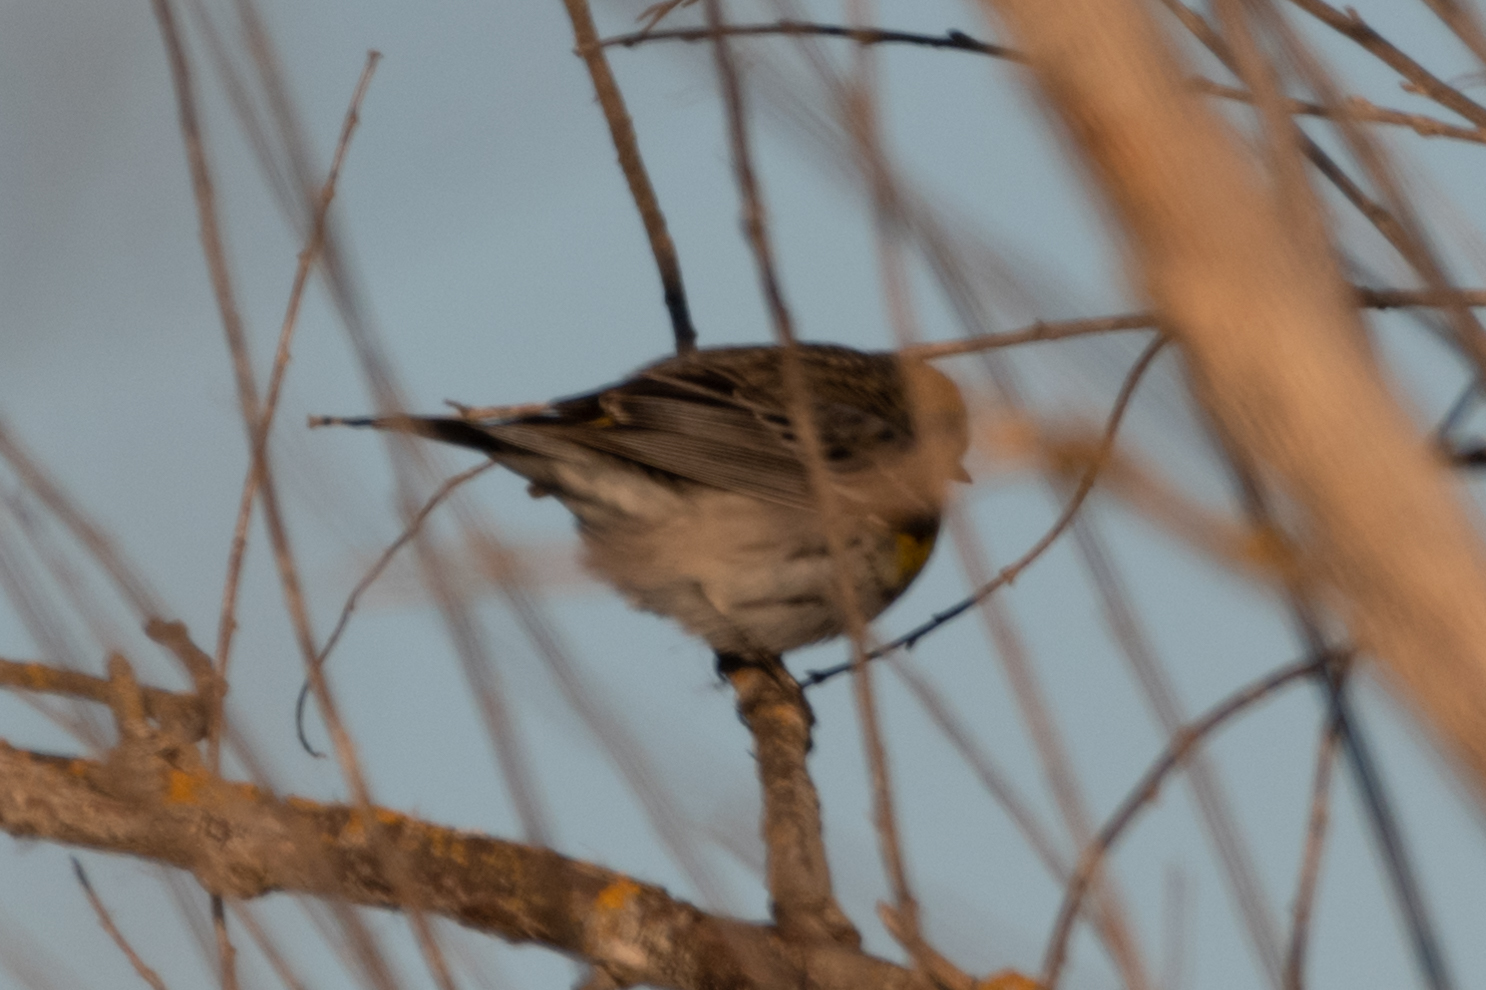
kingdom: Animalia
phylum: Chordata
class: Aves
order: Passeriformes
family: Parulidae
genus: Setophaga
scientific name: Setophaga coronata
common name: Myrtle warbler
